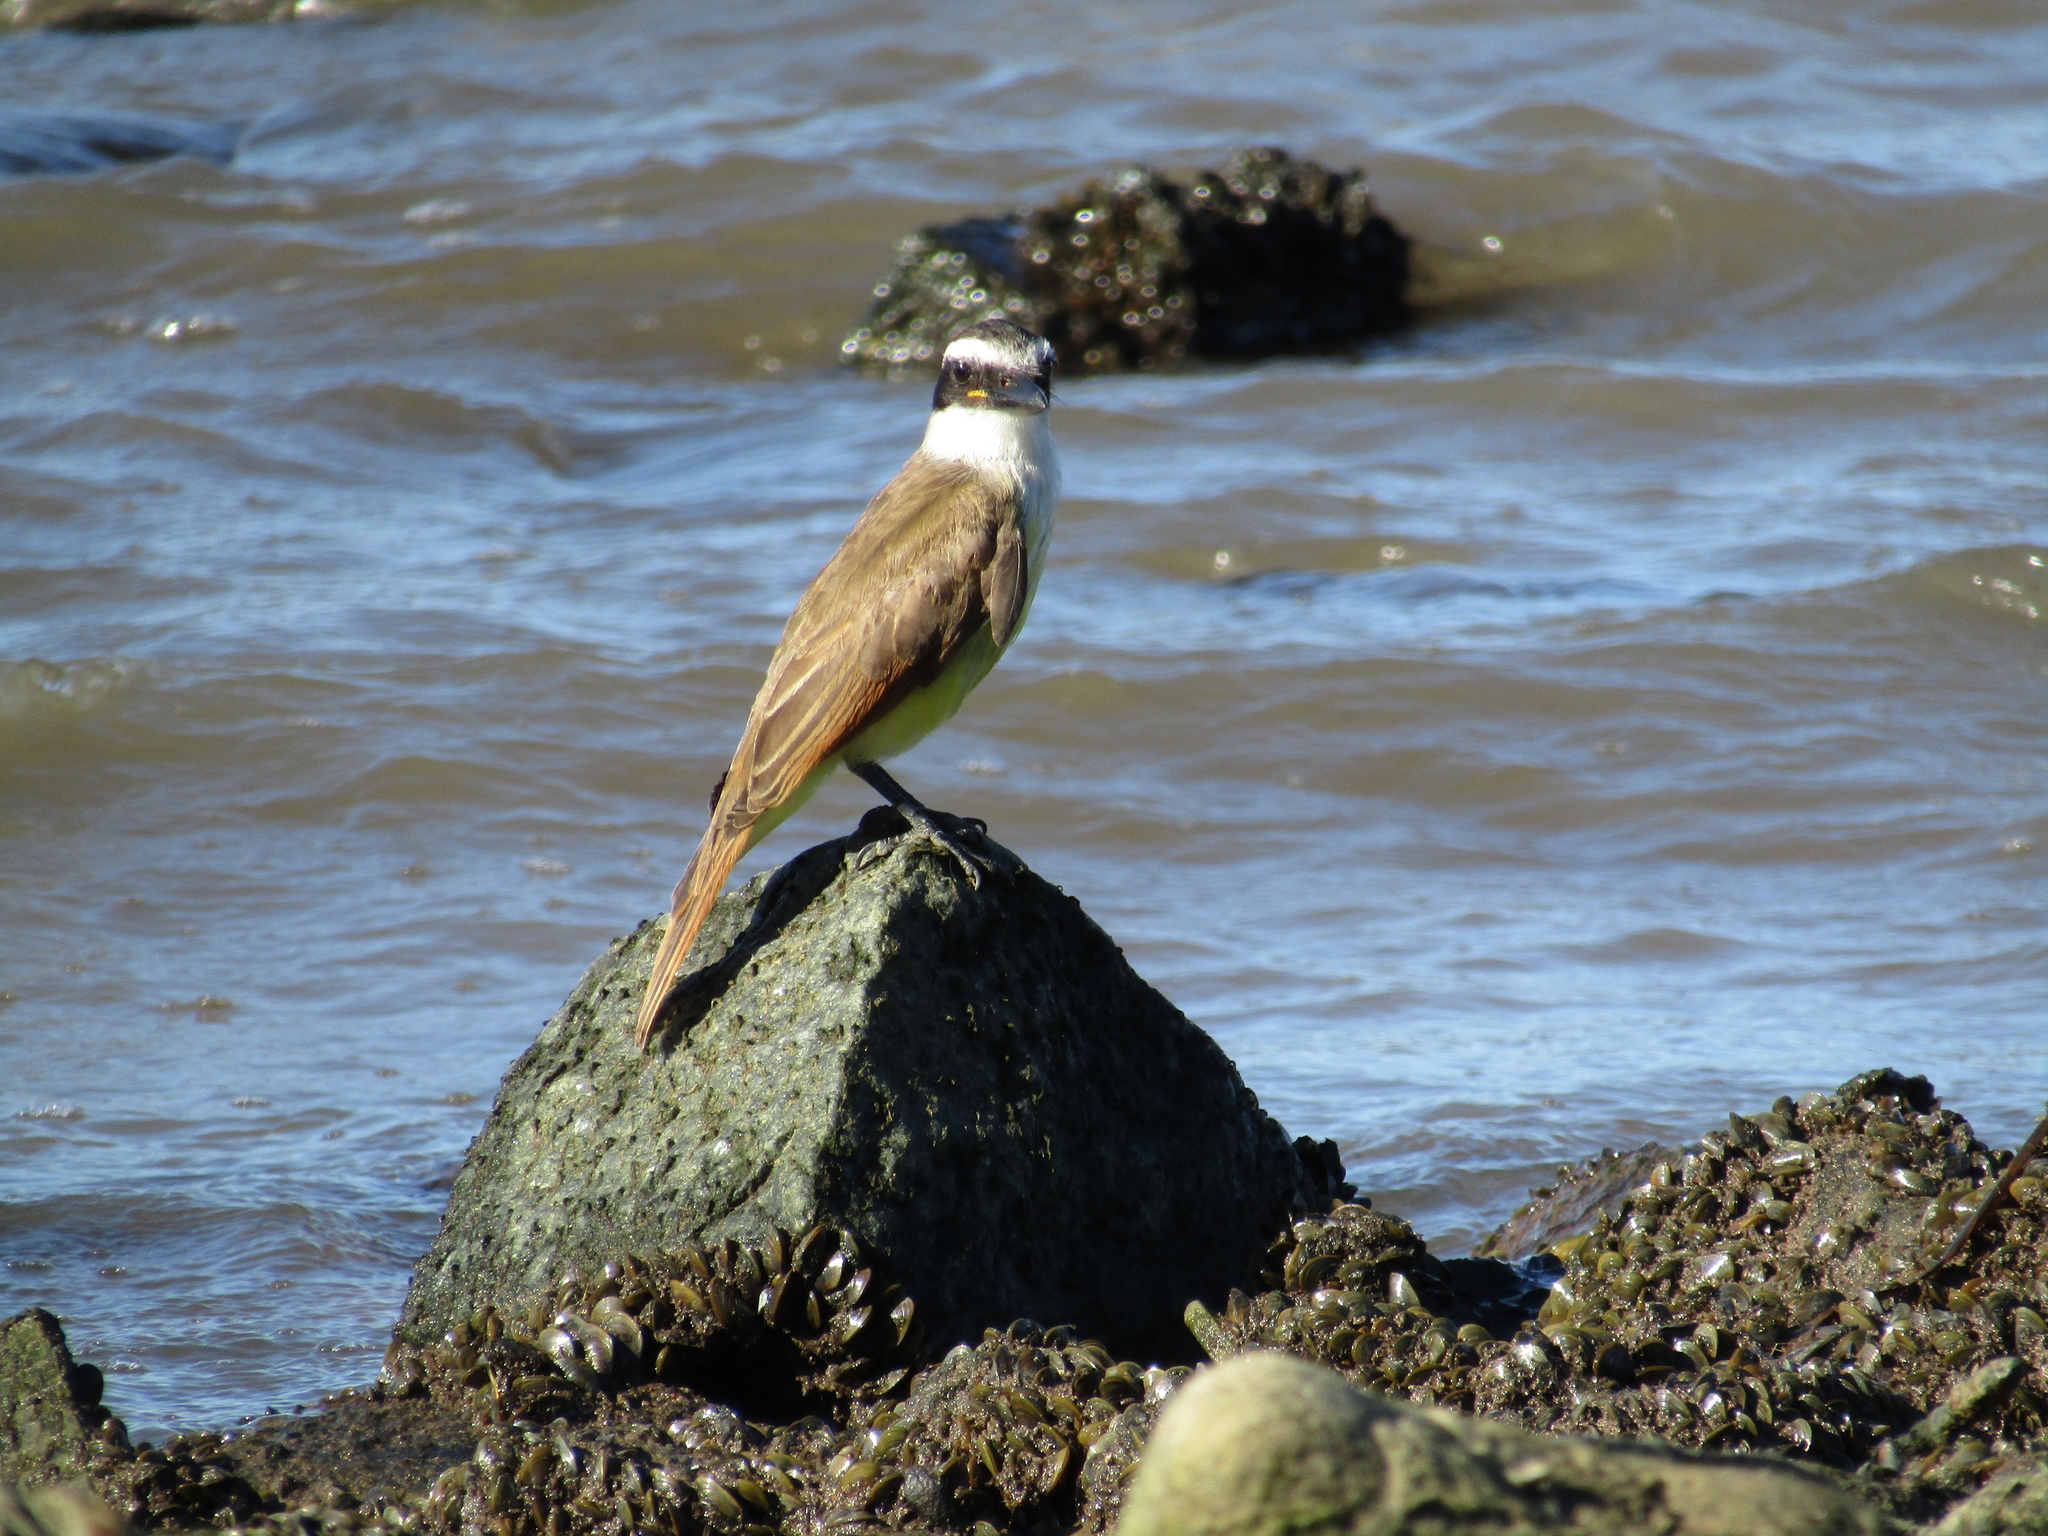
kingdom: Animalia
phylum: Chordata
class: Aves
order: Passeriformes
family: Tyrannidae
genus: Pitangus
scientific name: Pitangus sulphuratus
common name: Great kiskadee
